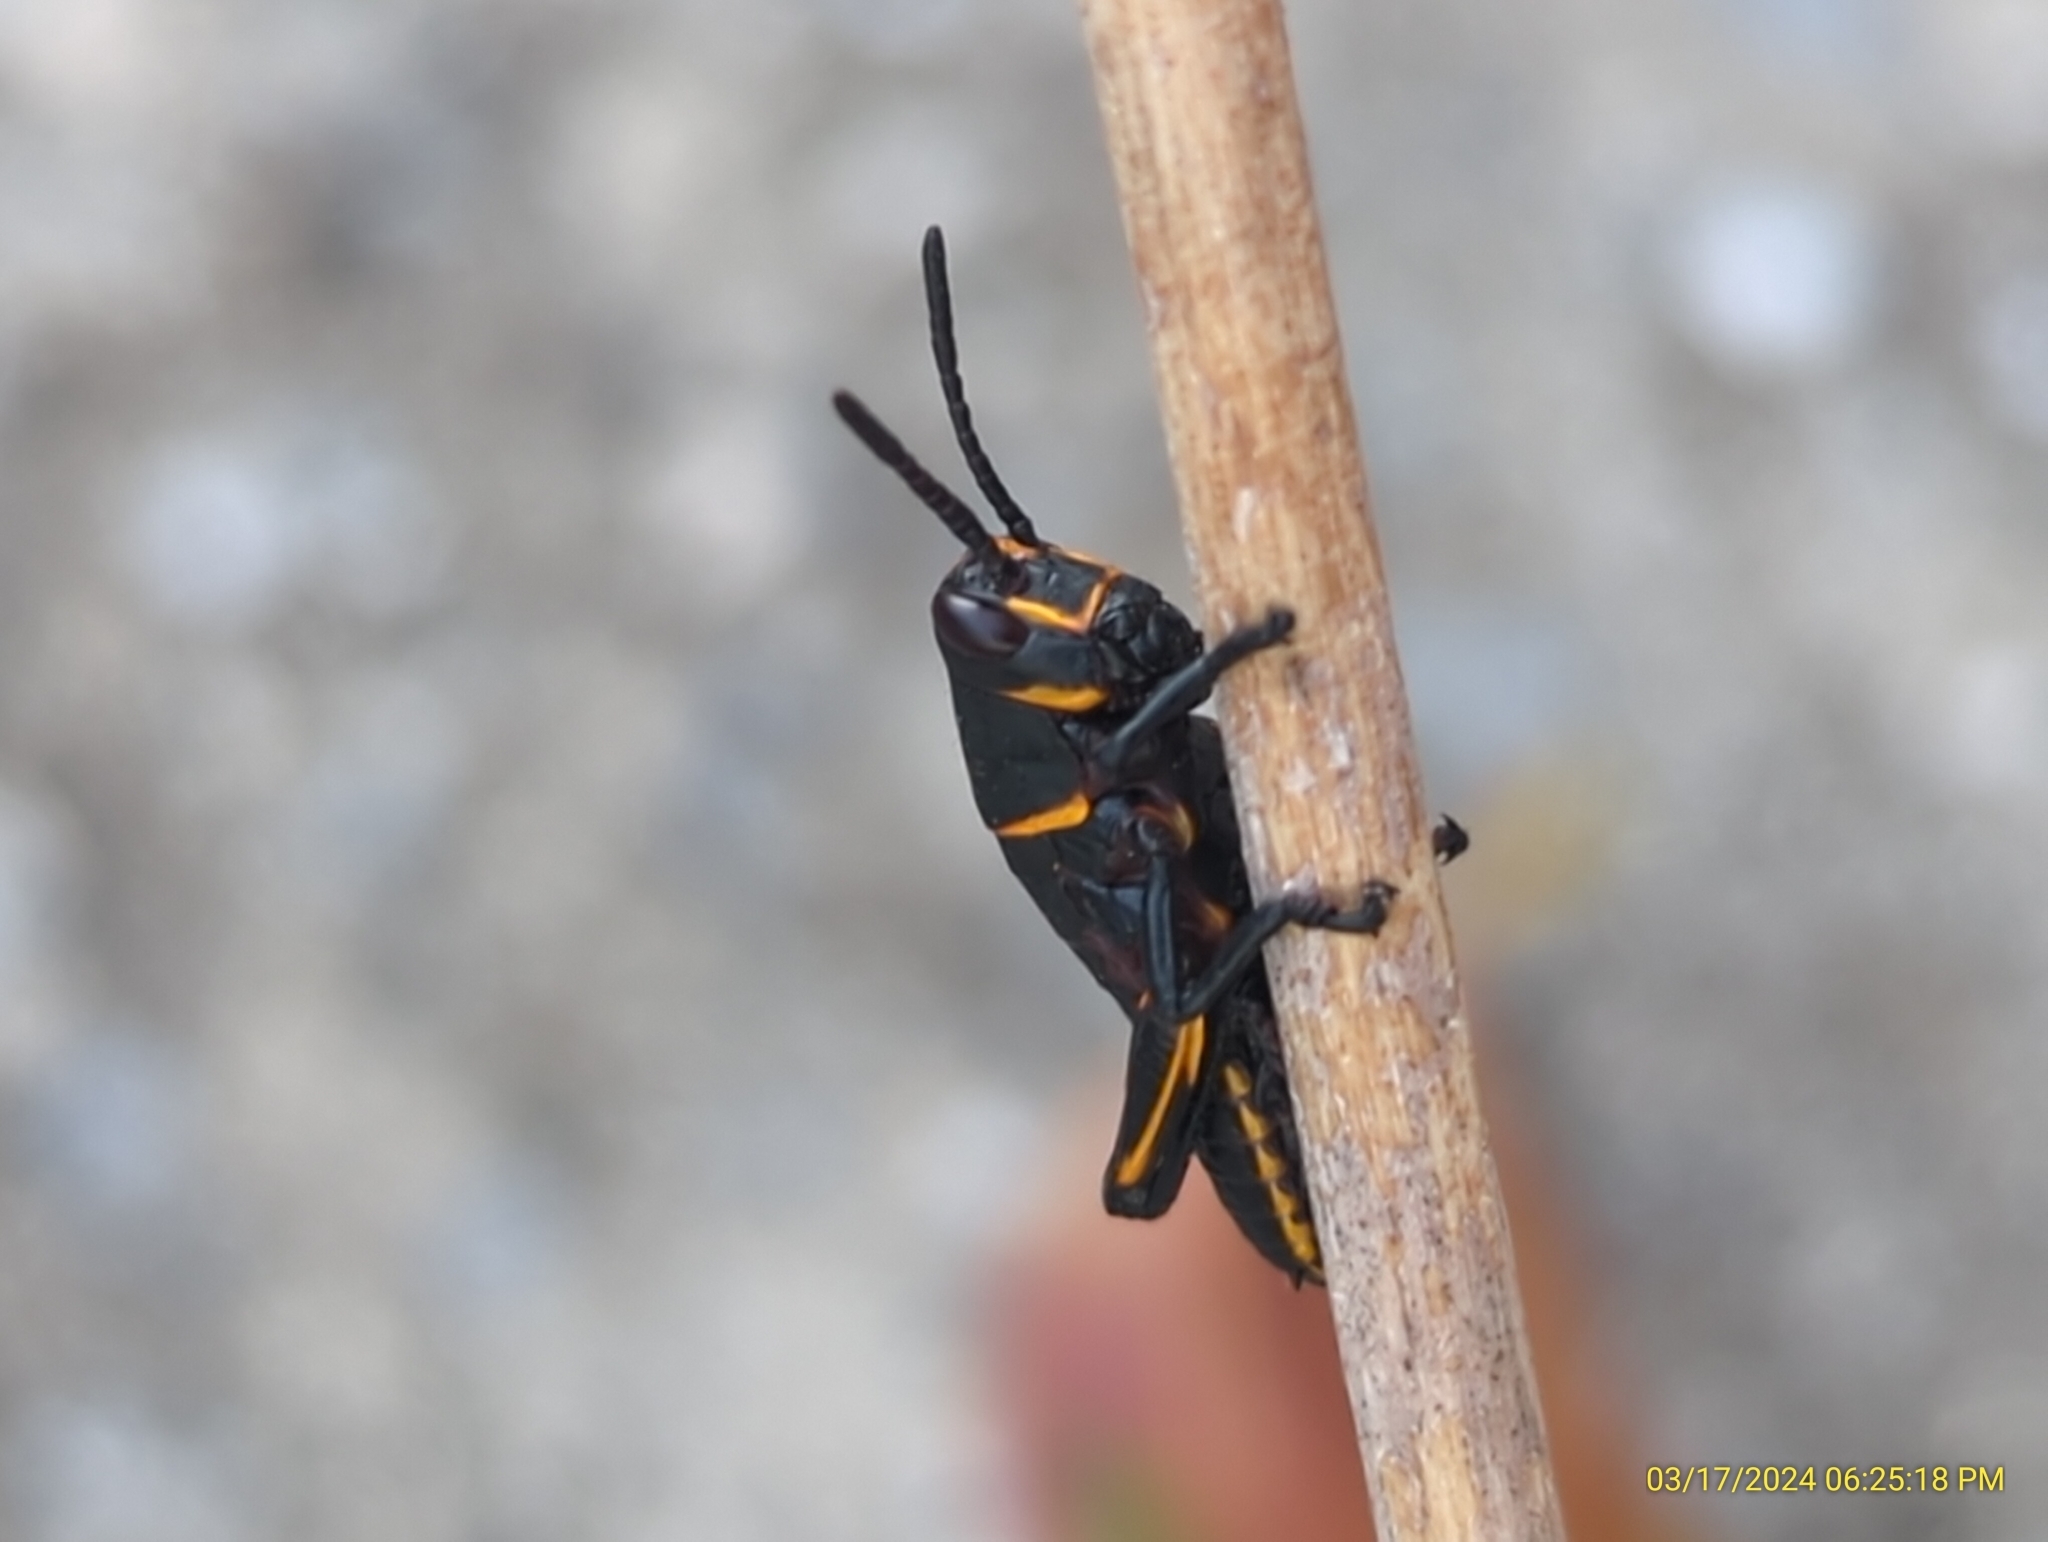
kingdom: Animalia
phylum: Arthropoda
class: Insecta
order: Orthoptera
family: Romaleidae
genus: Romalea
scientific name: Romalea microptera
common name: Eastern lubber grasshopper
